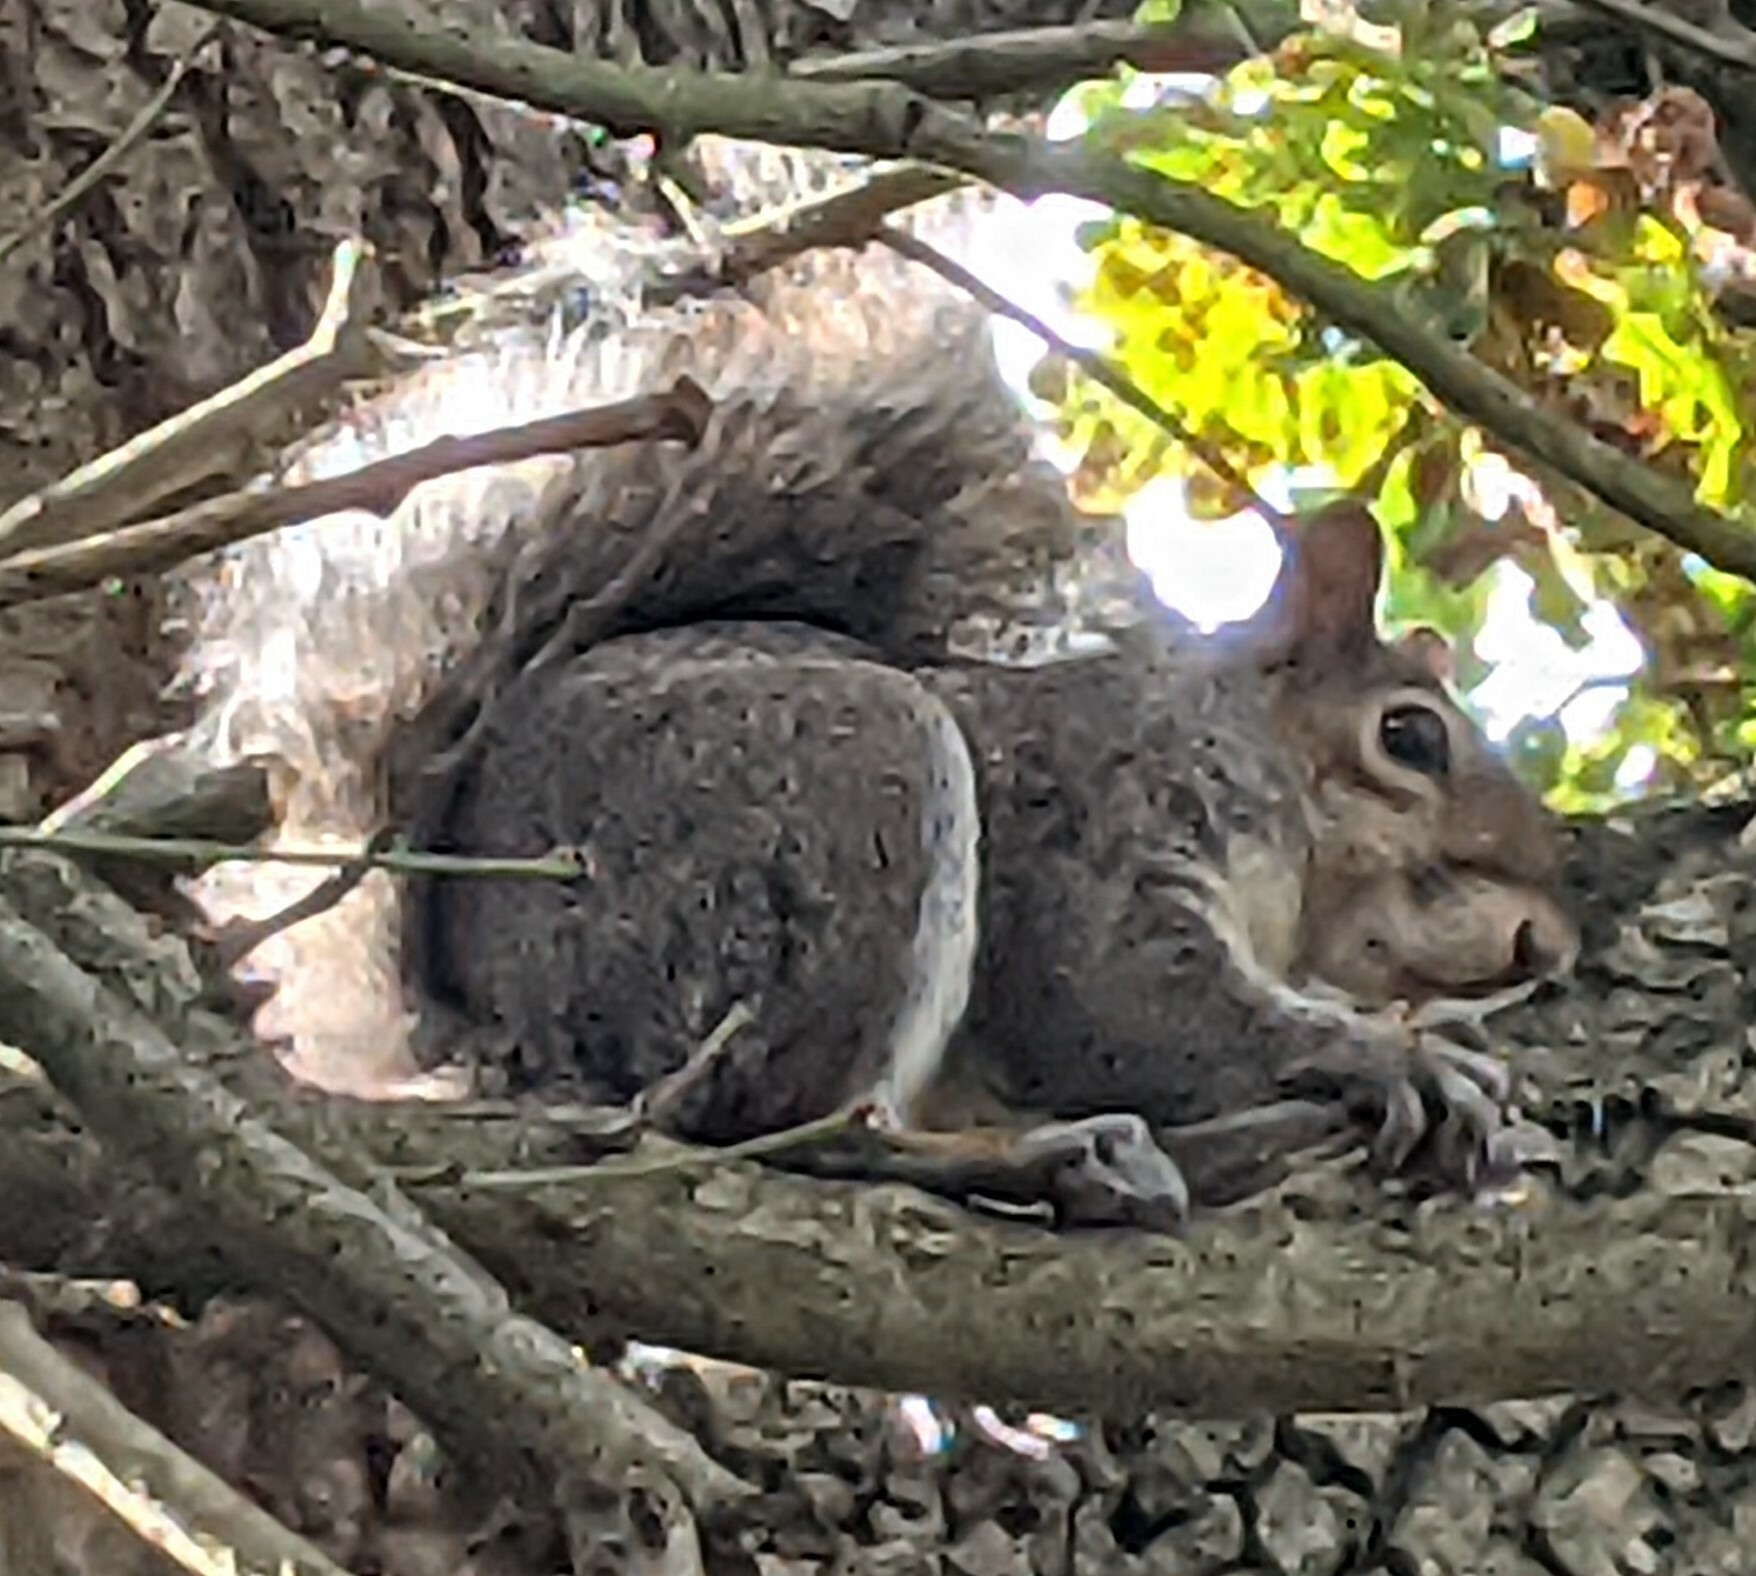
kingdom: Animalia
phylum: Chordata
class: Mammalia
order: Rodentia
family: Sciuridae
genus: Sciurus
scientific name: Sciurus carolinensis
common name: Eastern gray squirrel
